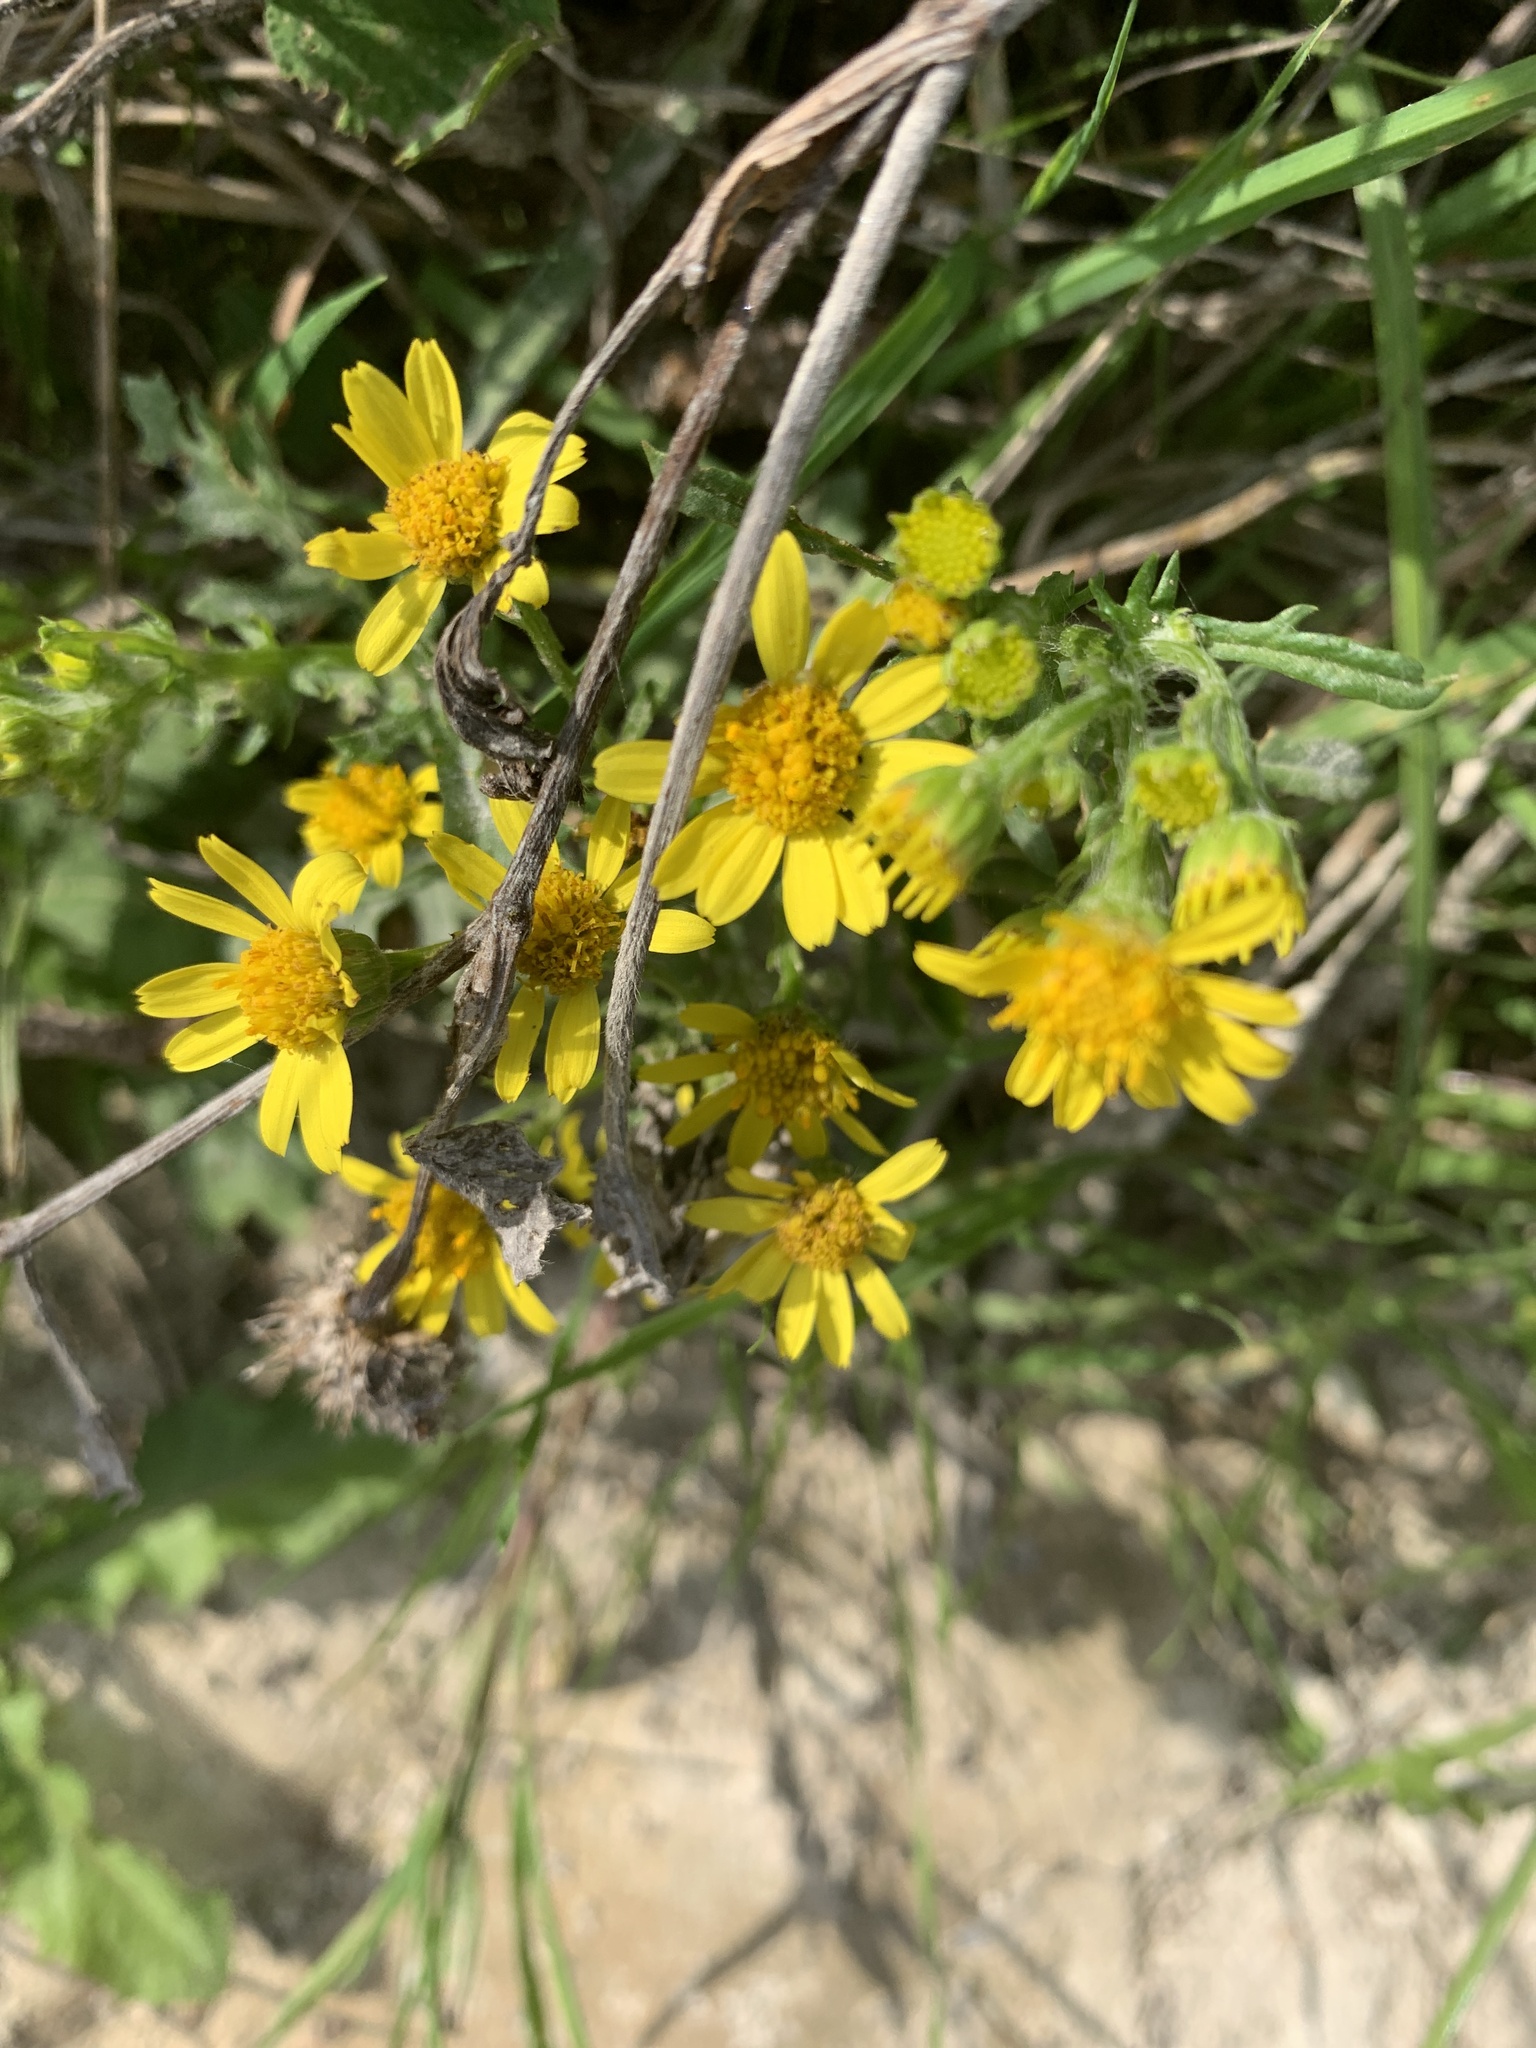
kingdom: Plantae
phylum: Tracheophyta
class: Magnoliopsida
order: Asterales
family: Asteraceae
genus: Senecio
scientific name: Senecio squalidus
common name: Oxford ragwort
